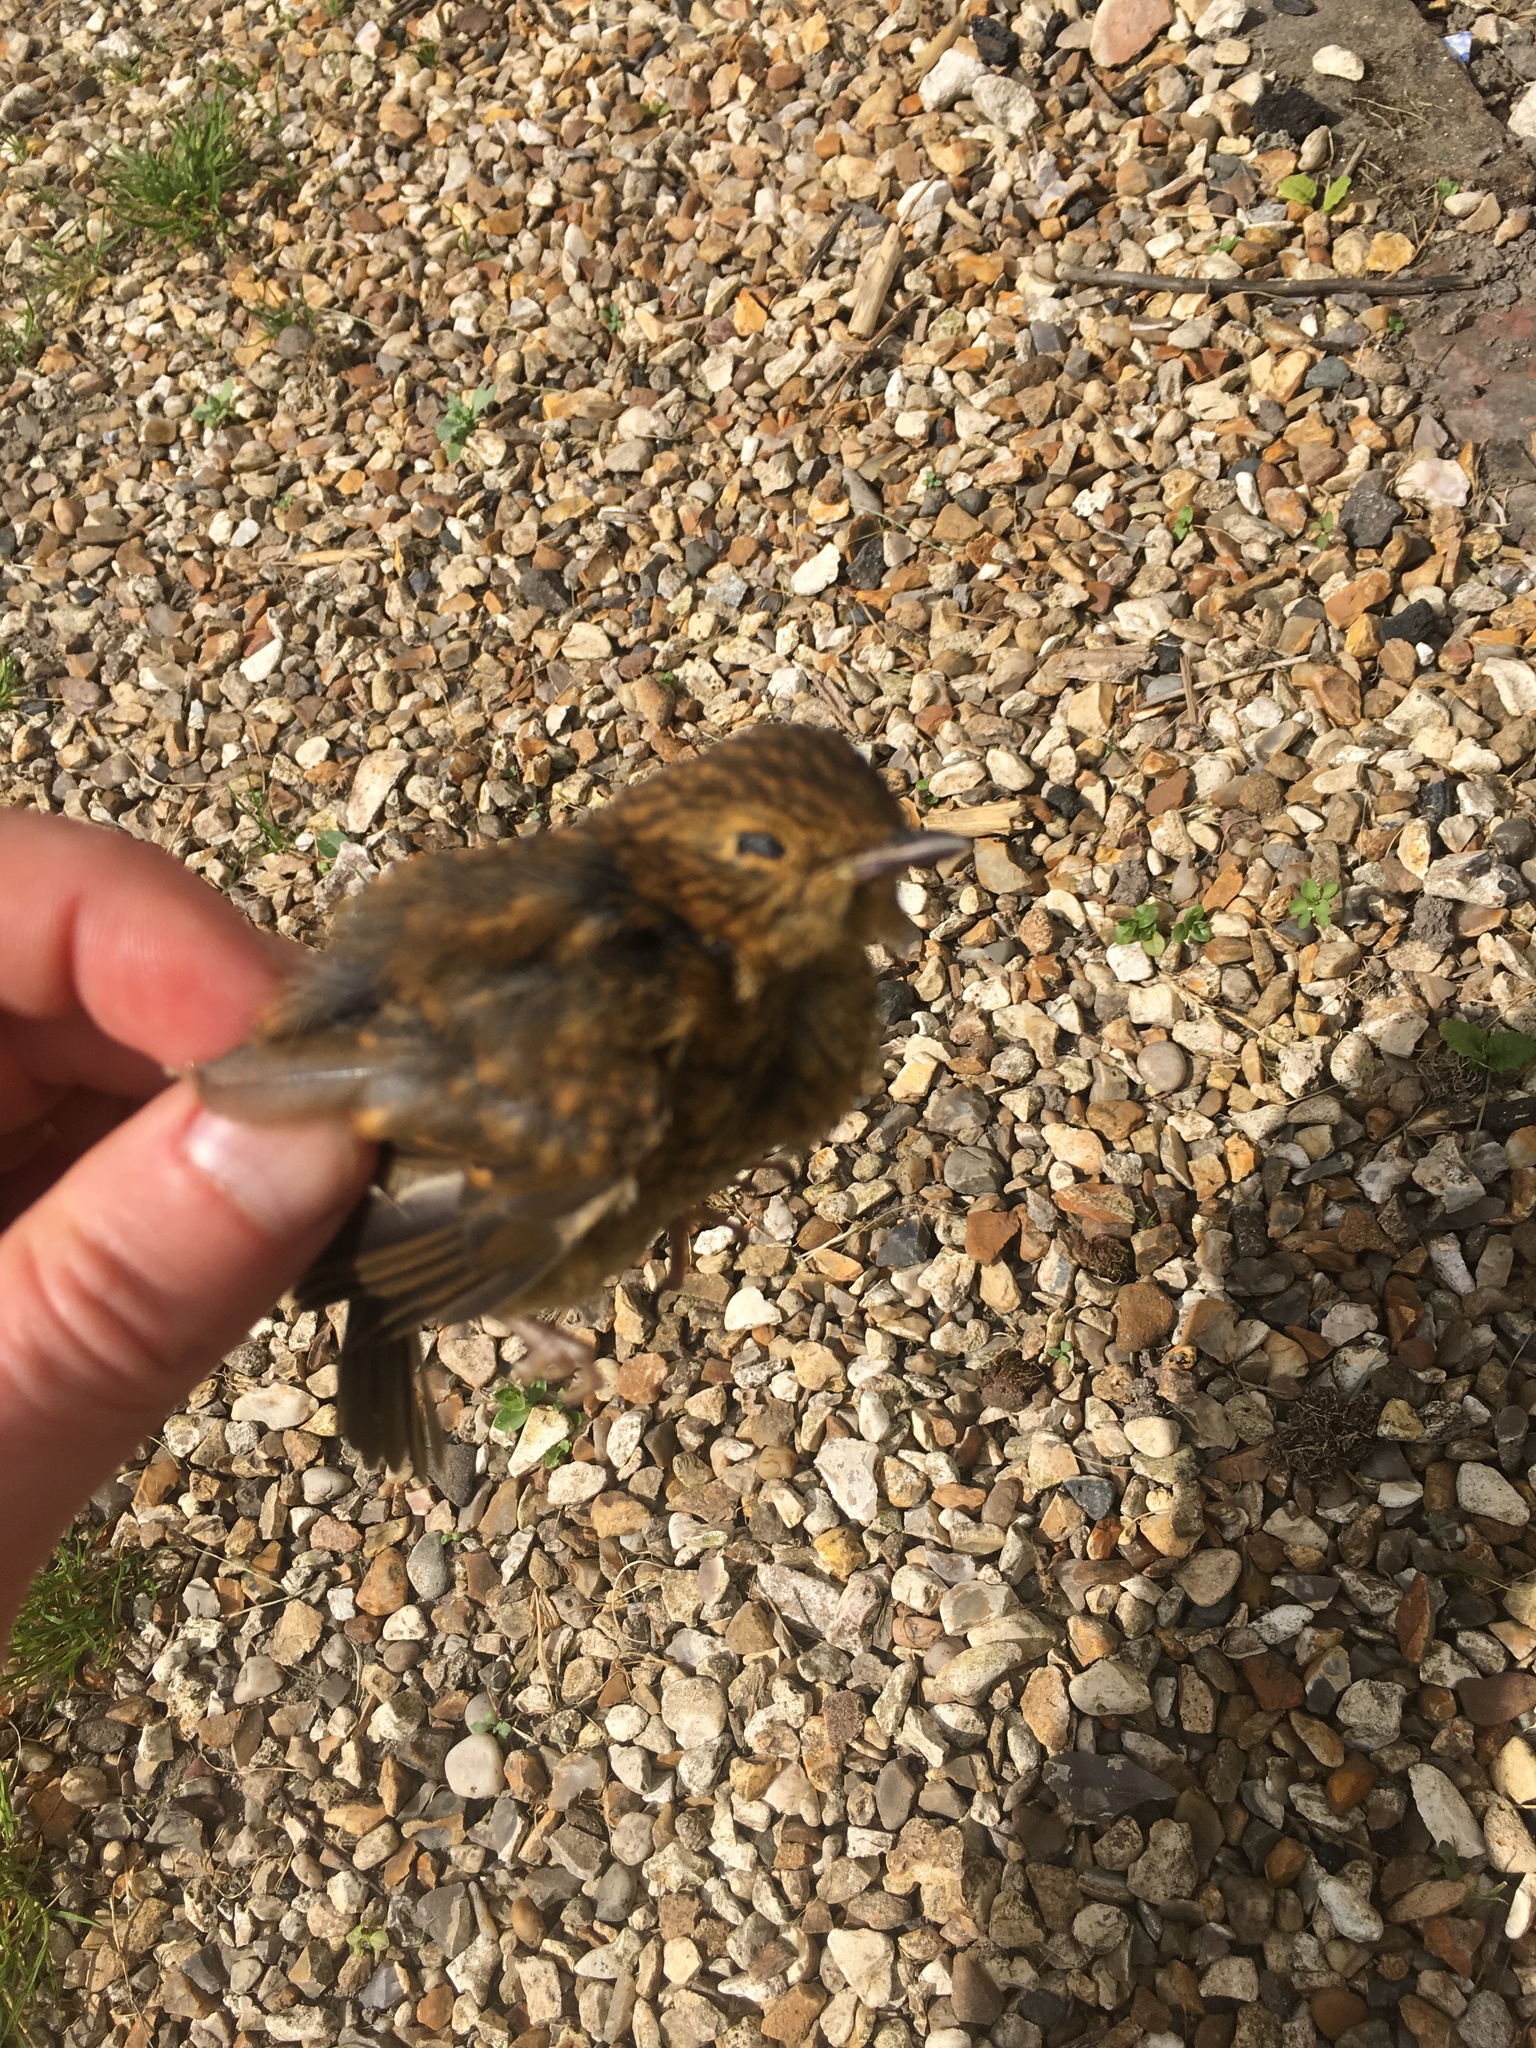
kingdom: Animalia
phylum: Chordata
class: Aves
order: Passeriformes
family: Muscicapidae
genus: Erithacus
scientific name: Erithacus rubecula
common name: European robin
